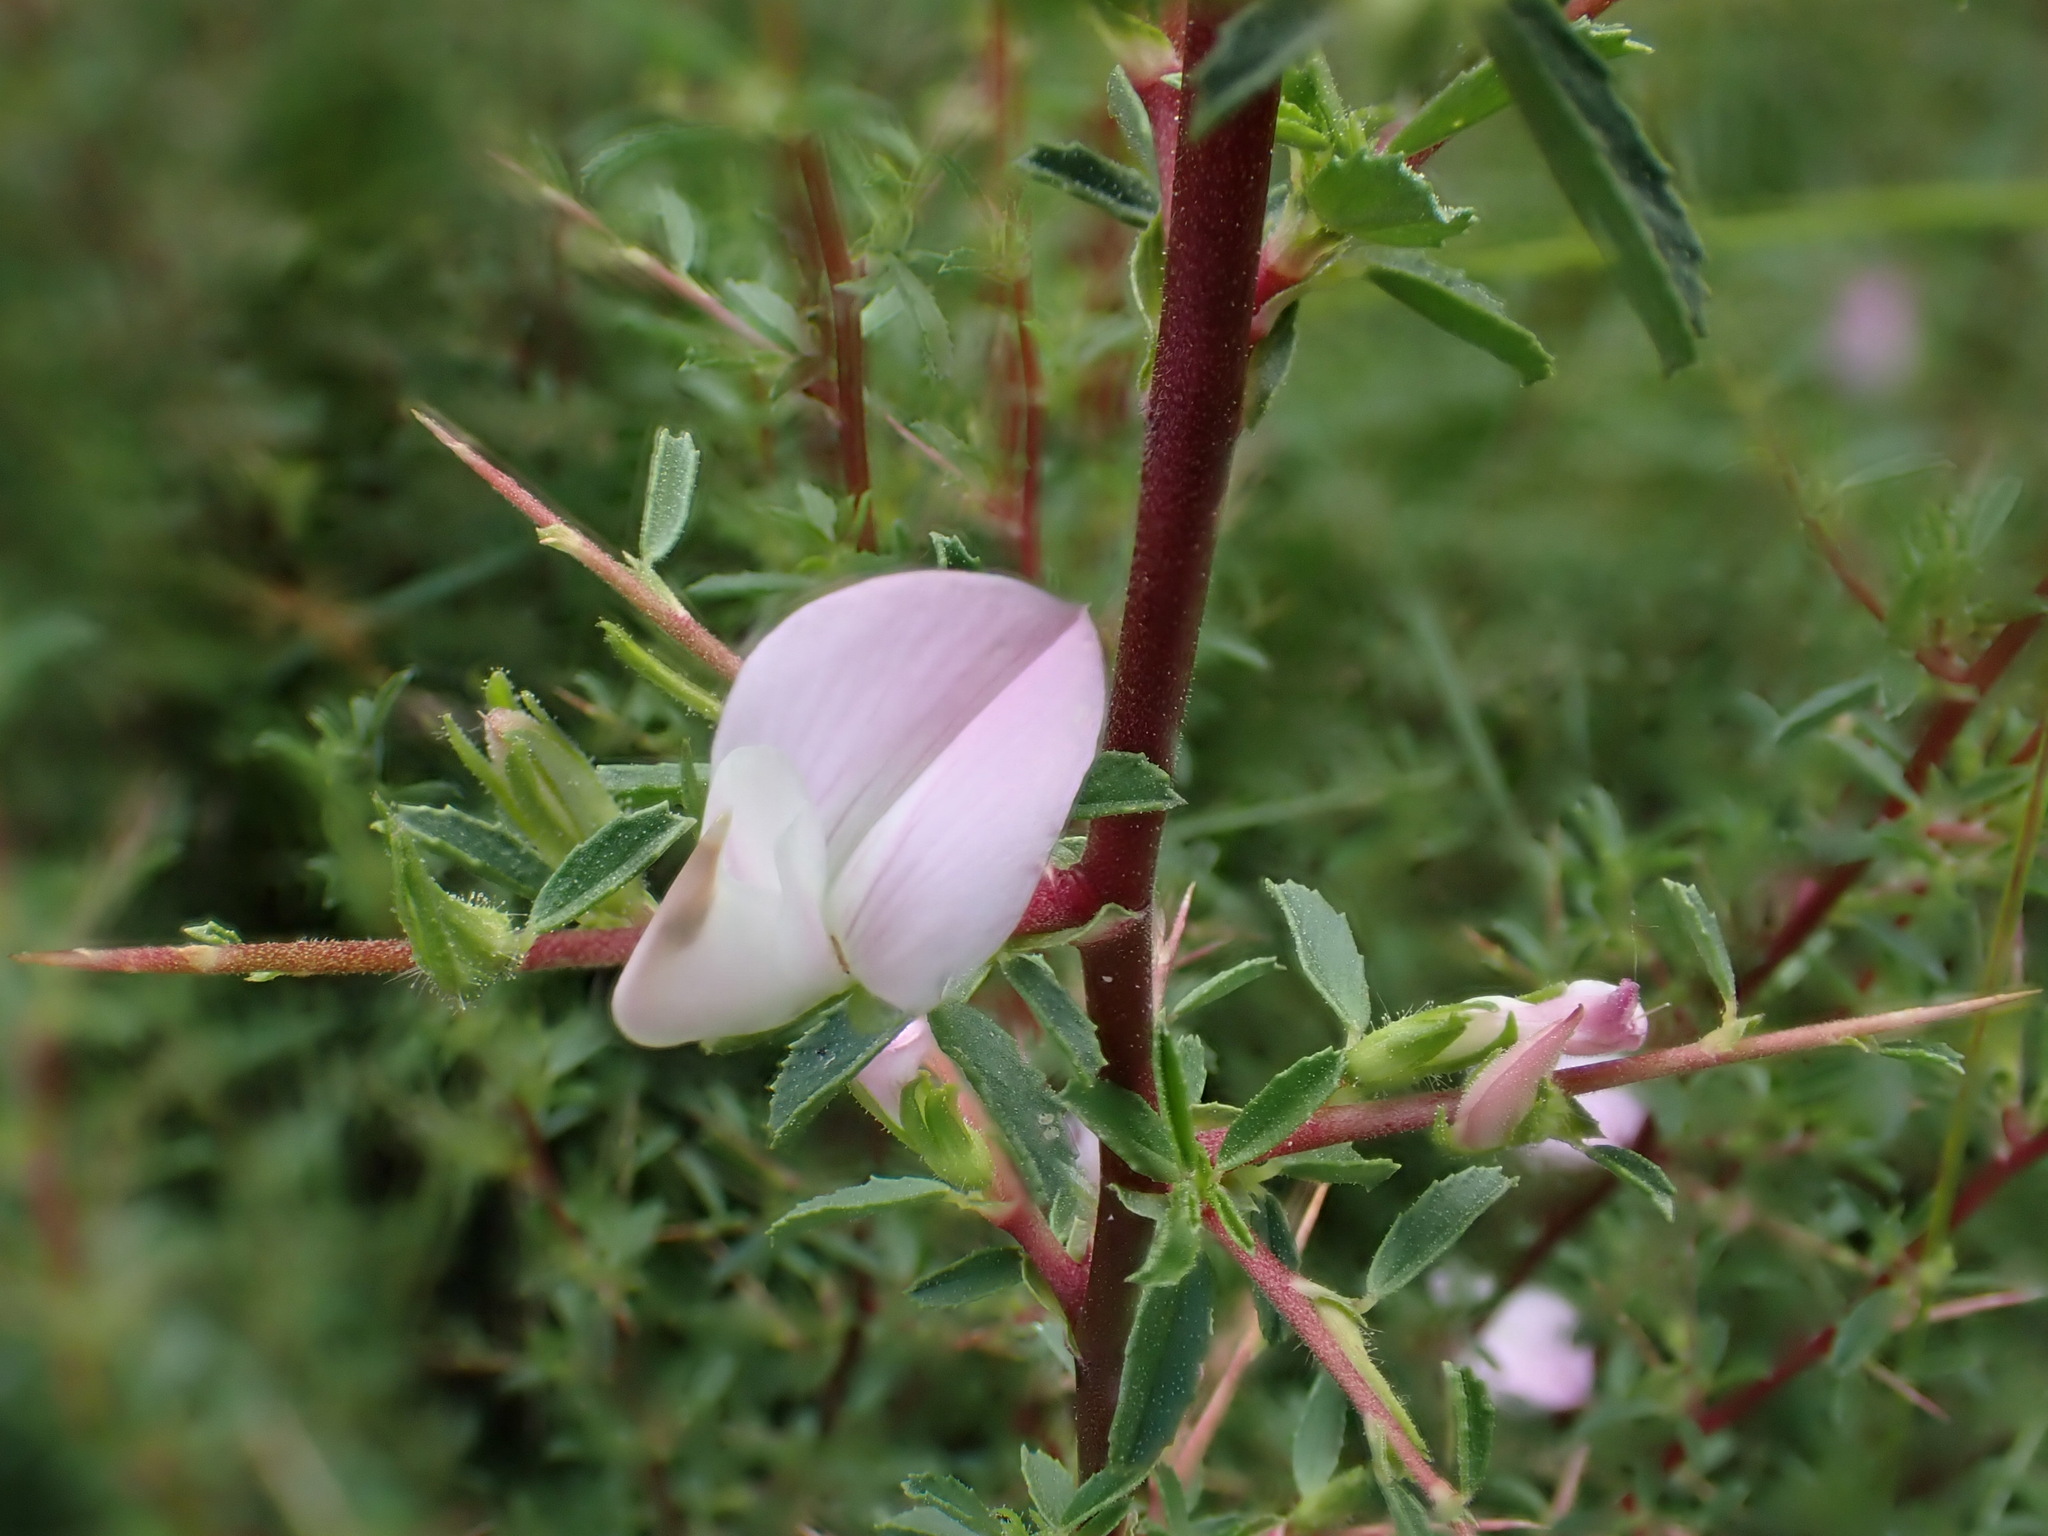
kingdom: Plantae
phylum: Tracheophyta
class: Magnoliopsida
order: Fabales
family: Fabaceae
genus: Ononis
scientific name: Ononis spinosa
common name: Spiny restharrow
